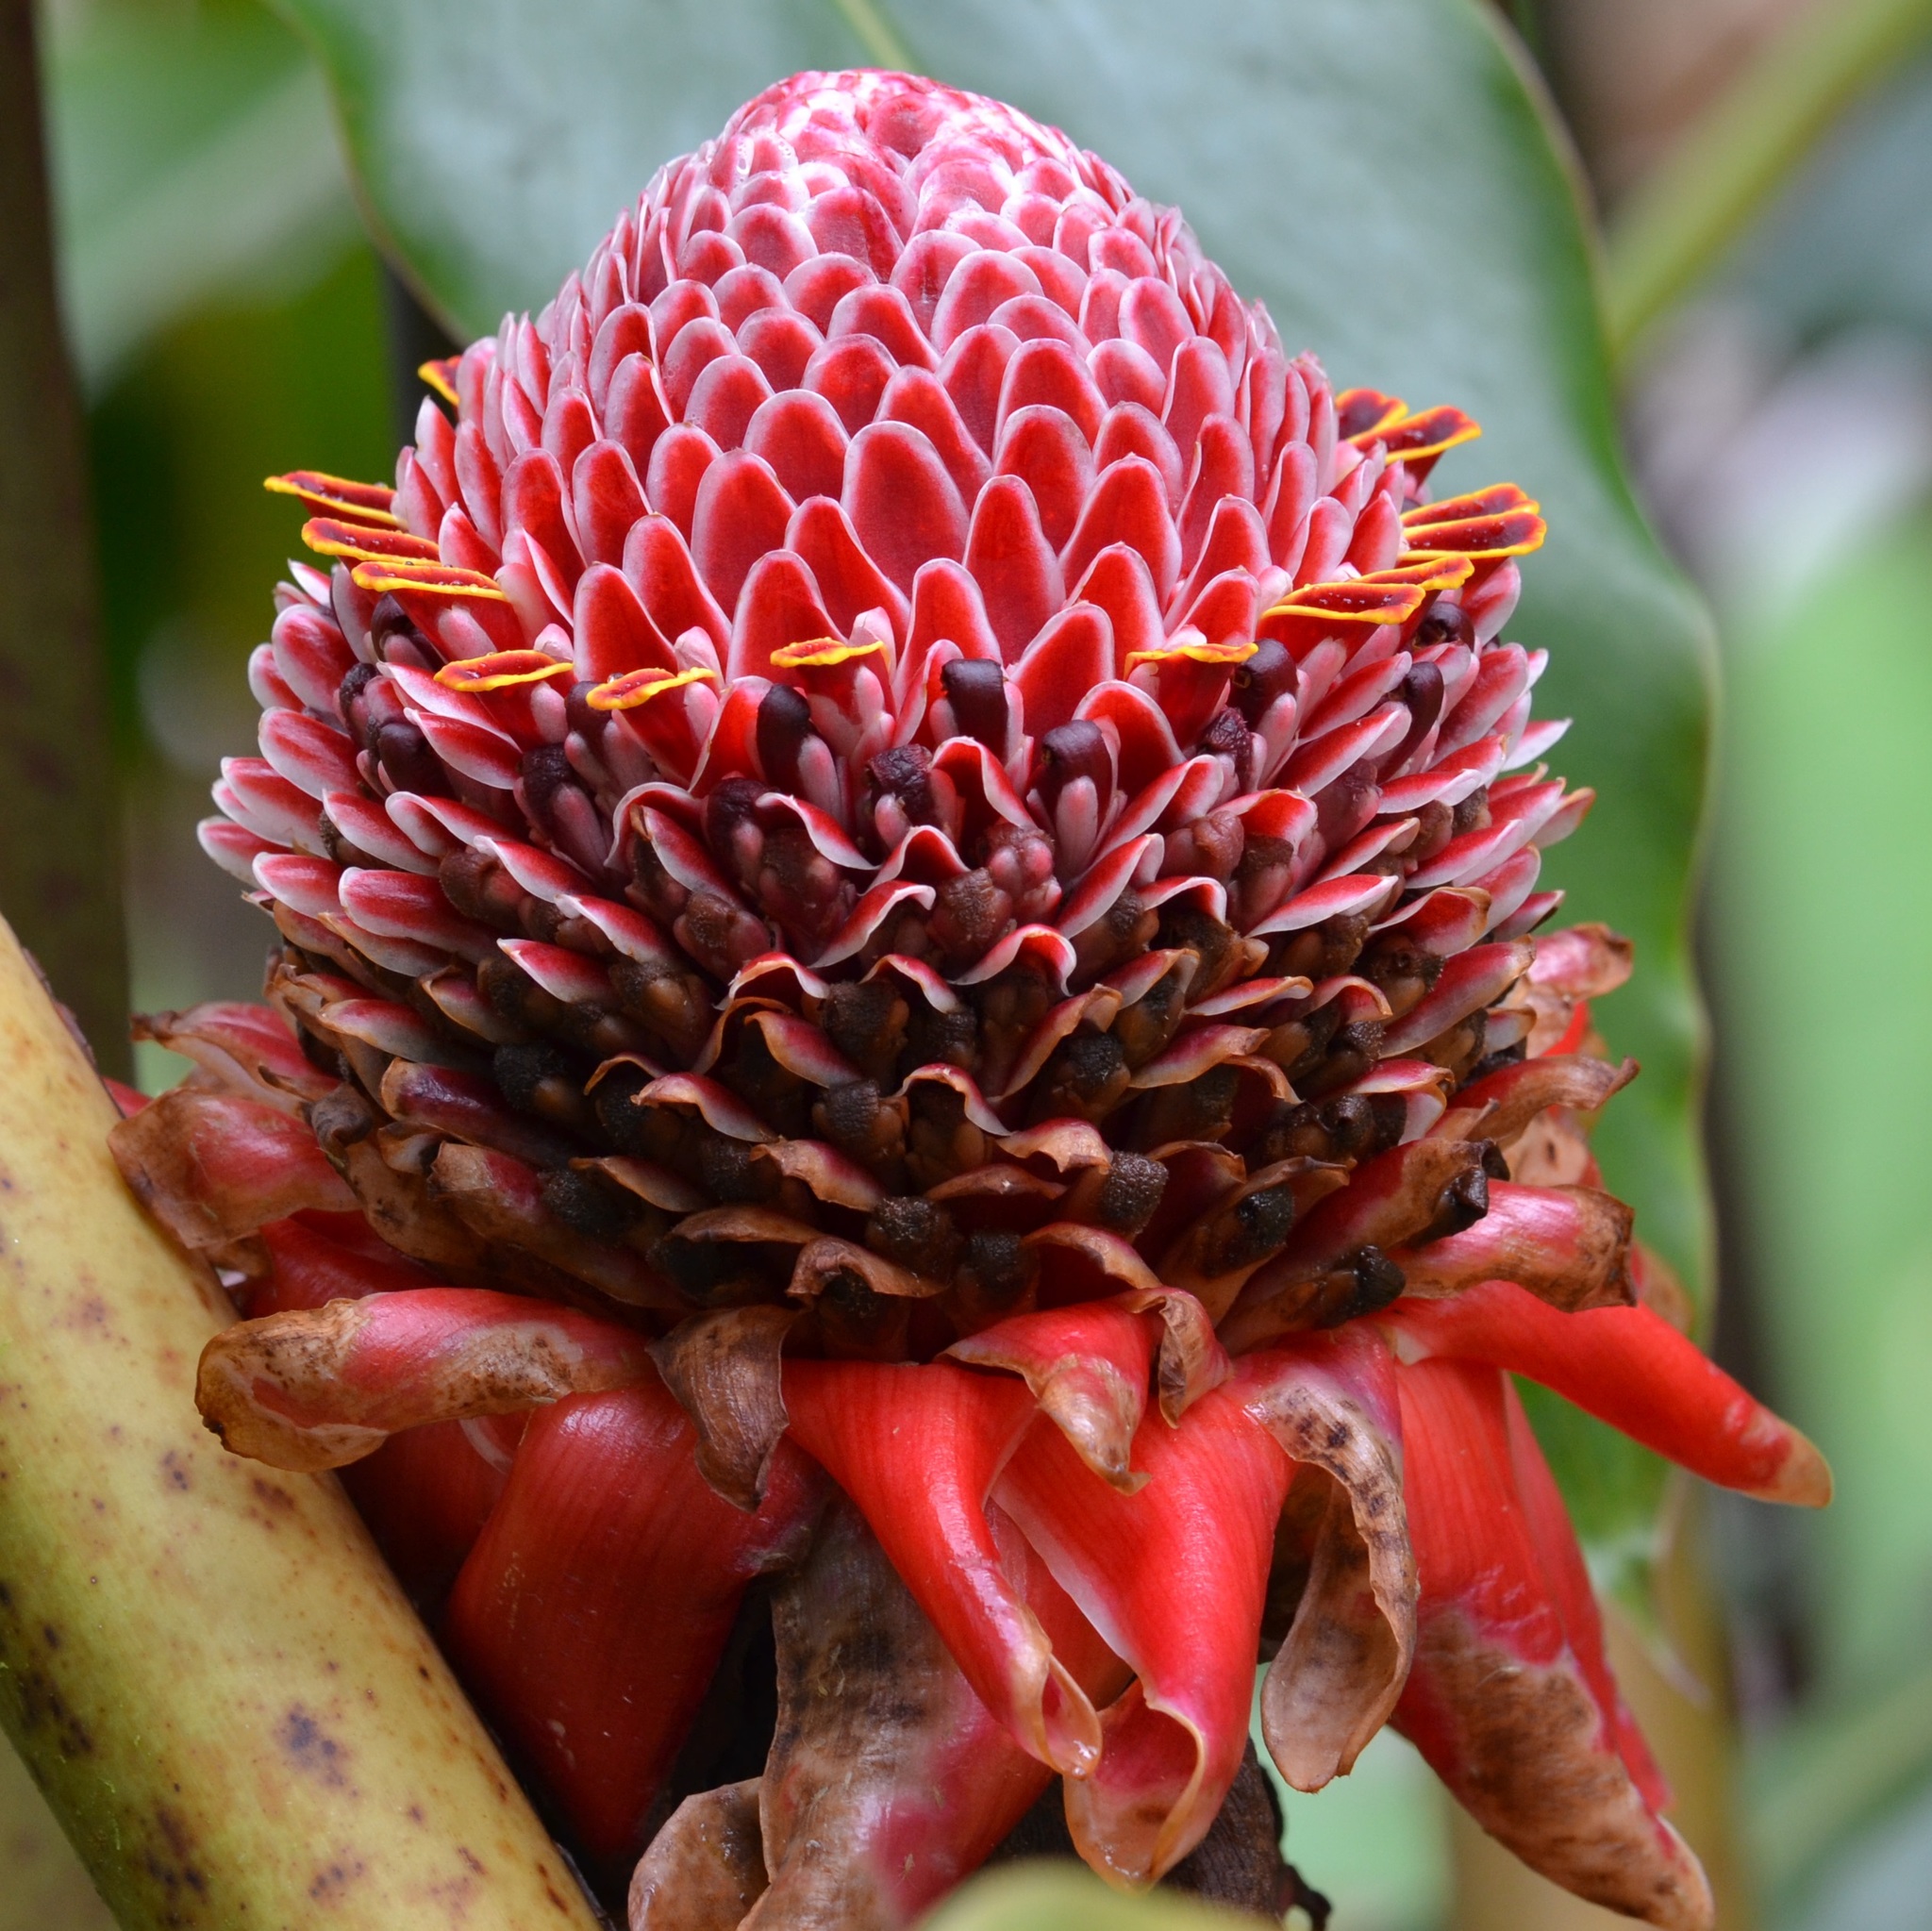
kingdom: Plantae
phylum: Tracheophyta
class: Liliopsida
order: Zingiberales
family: Zingiberaceae
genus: Etlingera
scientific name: Etlingera elatior
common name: Philippine waxflower
